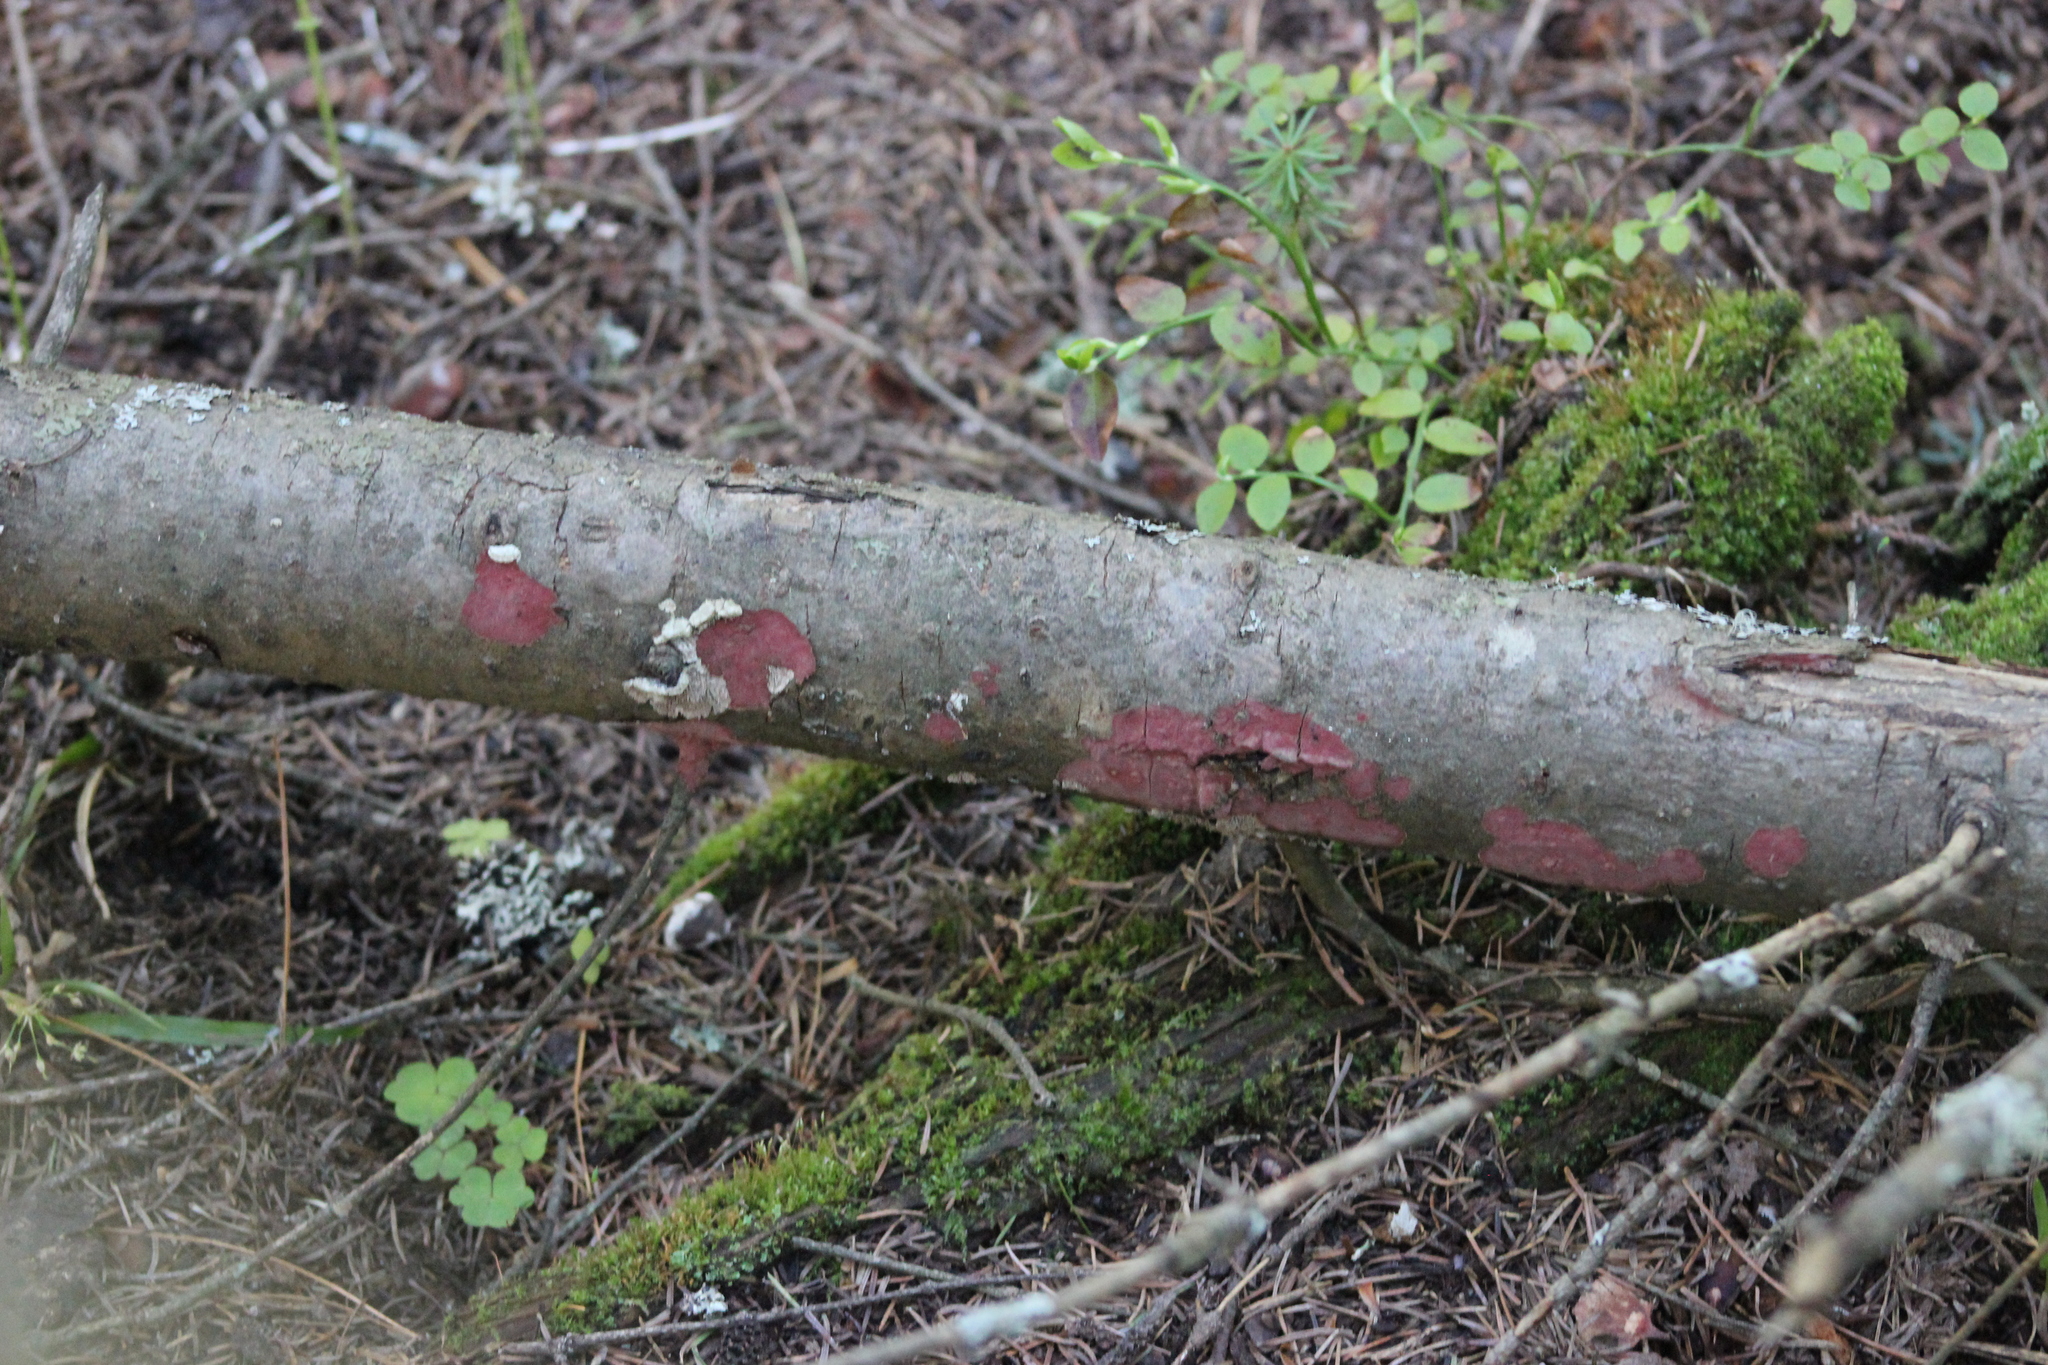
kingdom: Fungi
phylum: Basidiomycota
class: Agaricomycetes
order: Hymenochaetales
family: Hymenochaetaceae
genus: Hymenochaete
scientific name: Hymenochaete cruenta
